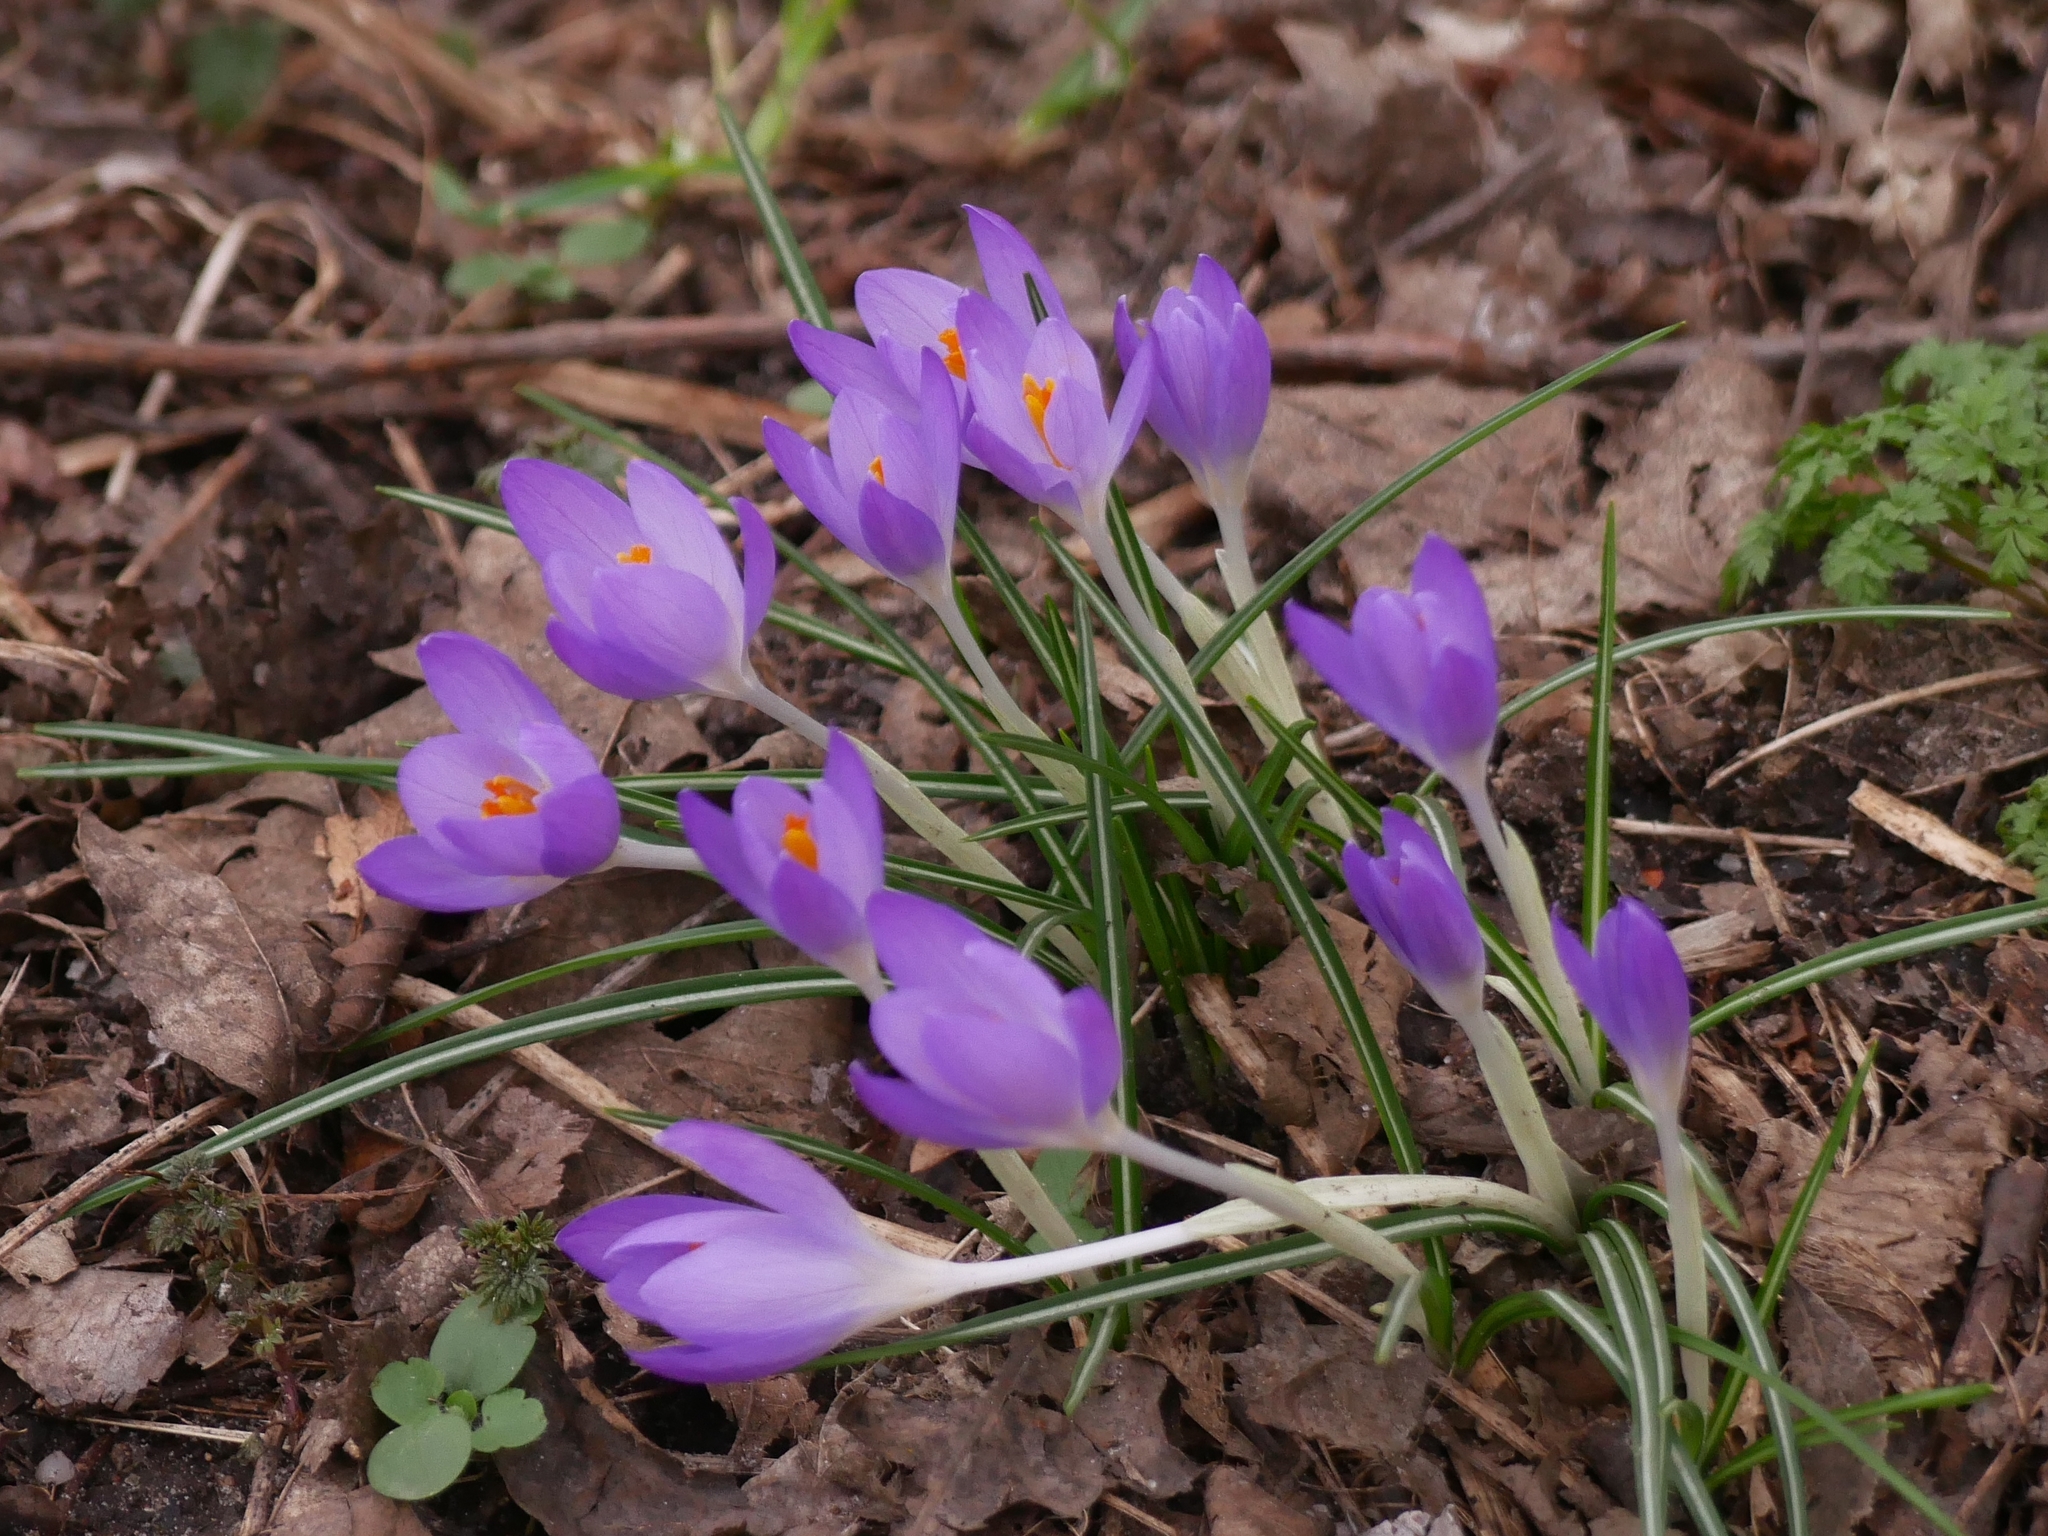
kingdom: Plantae
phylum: Tracheophyta
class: Liliopsida
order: Asparagales
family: Iridaceae
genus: Crocus
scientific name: Crocus tommasinianus
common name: Early crocus
